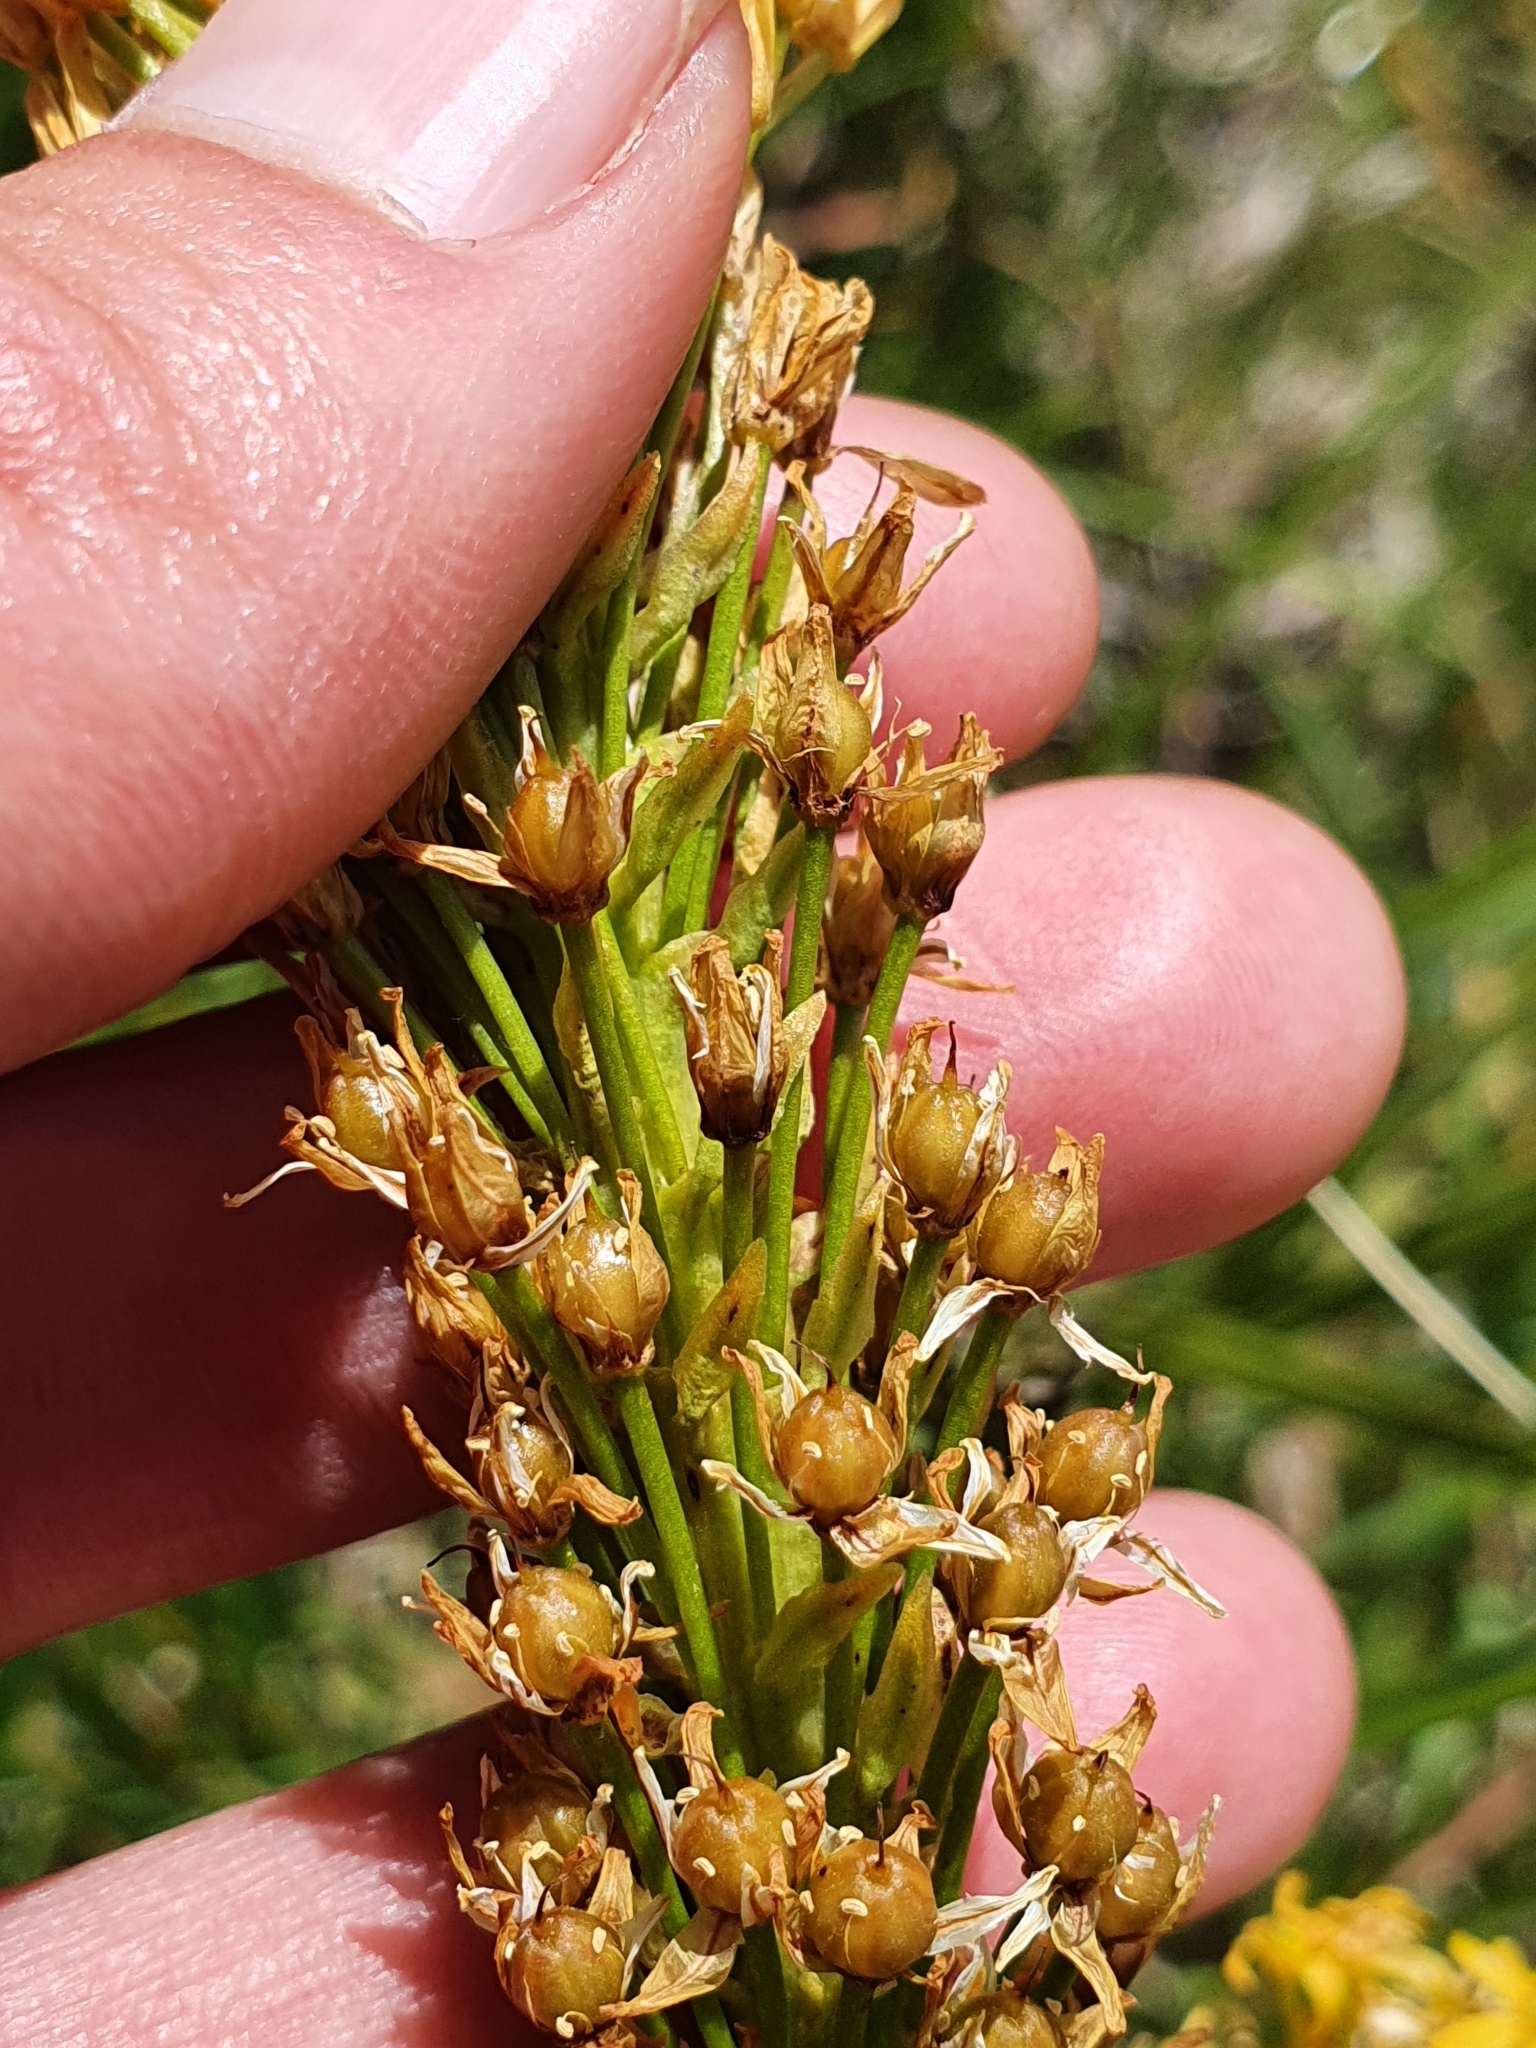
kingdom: Plantae
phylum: Tracheophyta
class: Liliopsida
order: Asparagales
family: Asphodelaceae
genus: Bulbinella
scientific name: Bulbinella angustifolia
